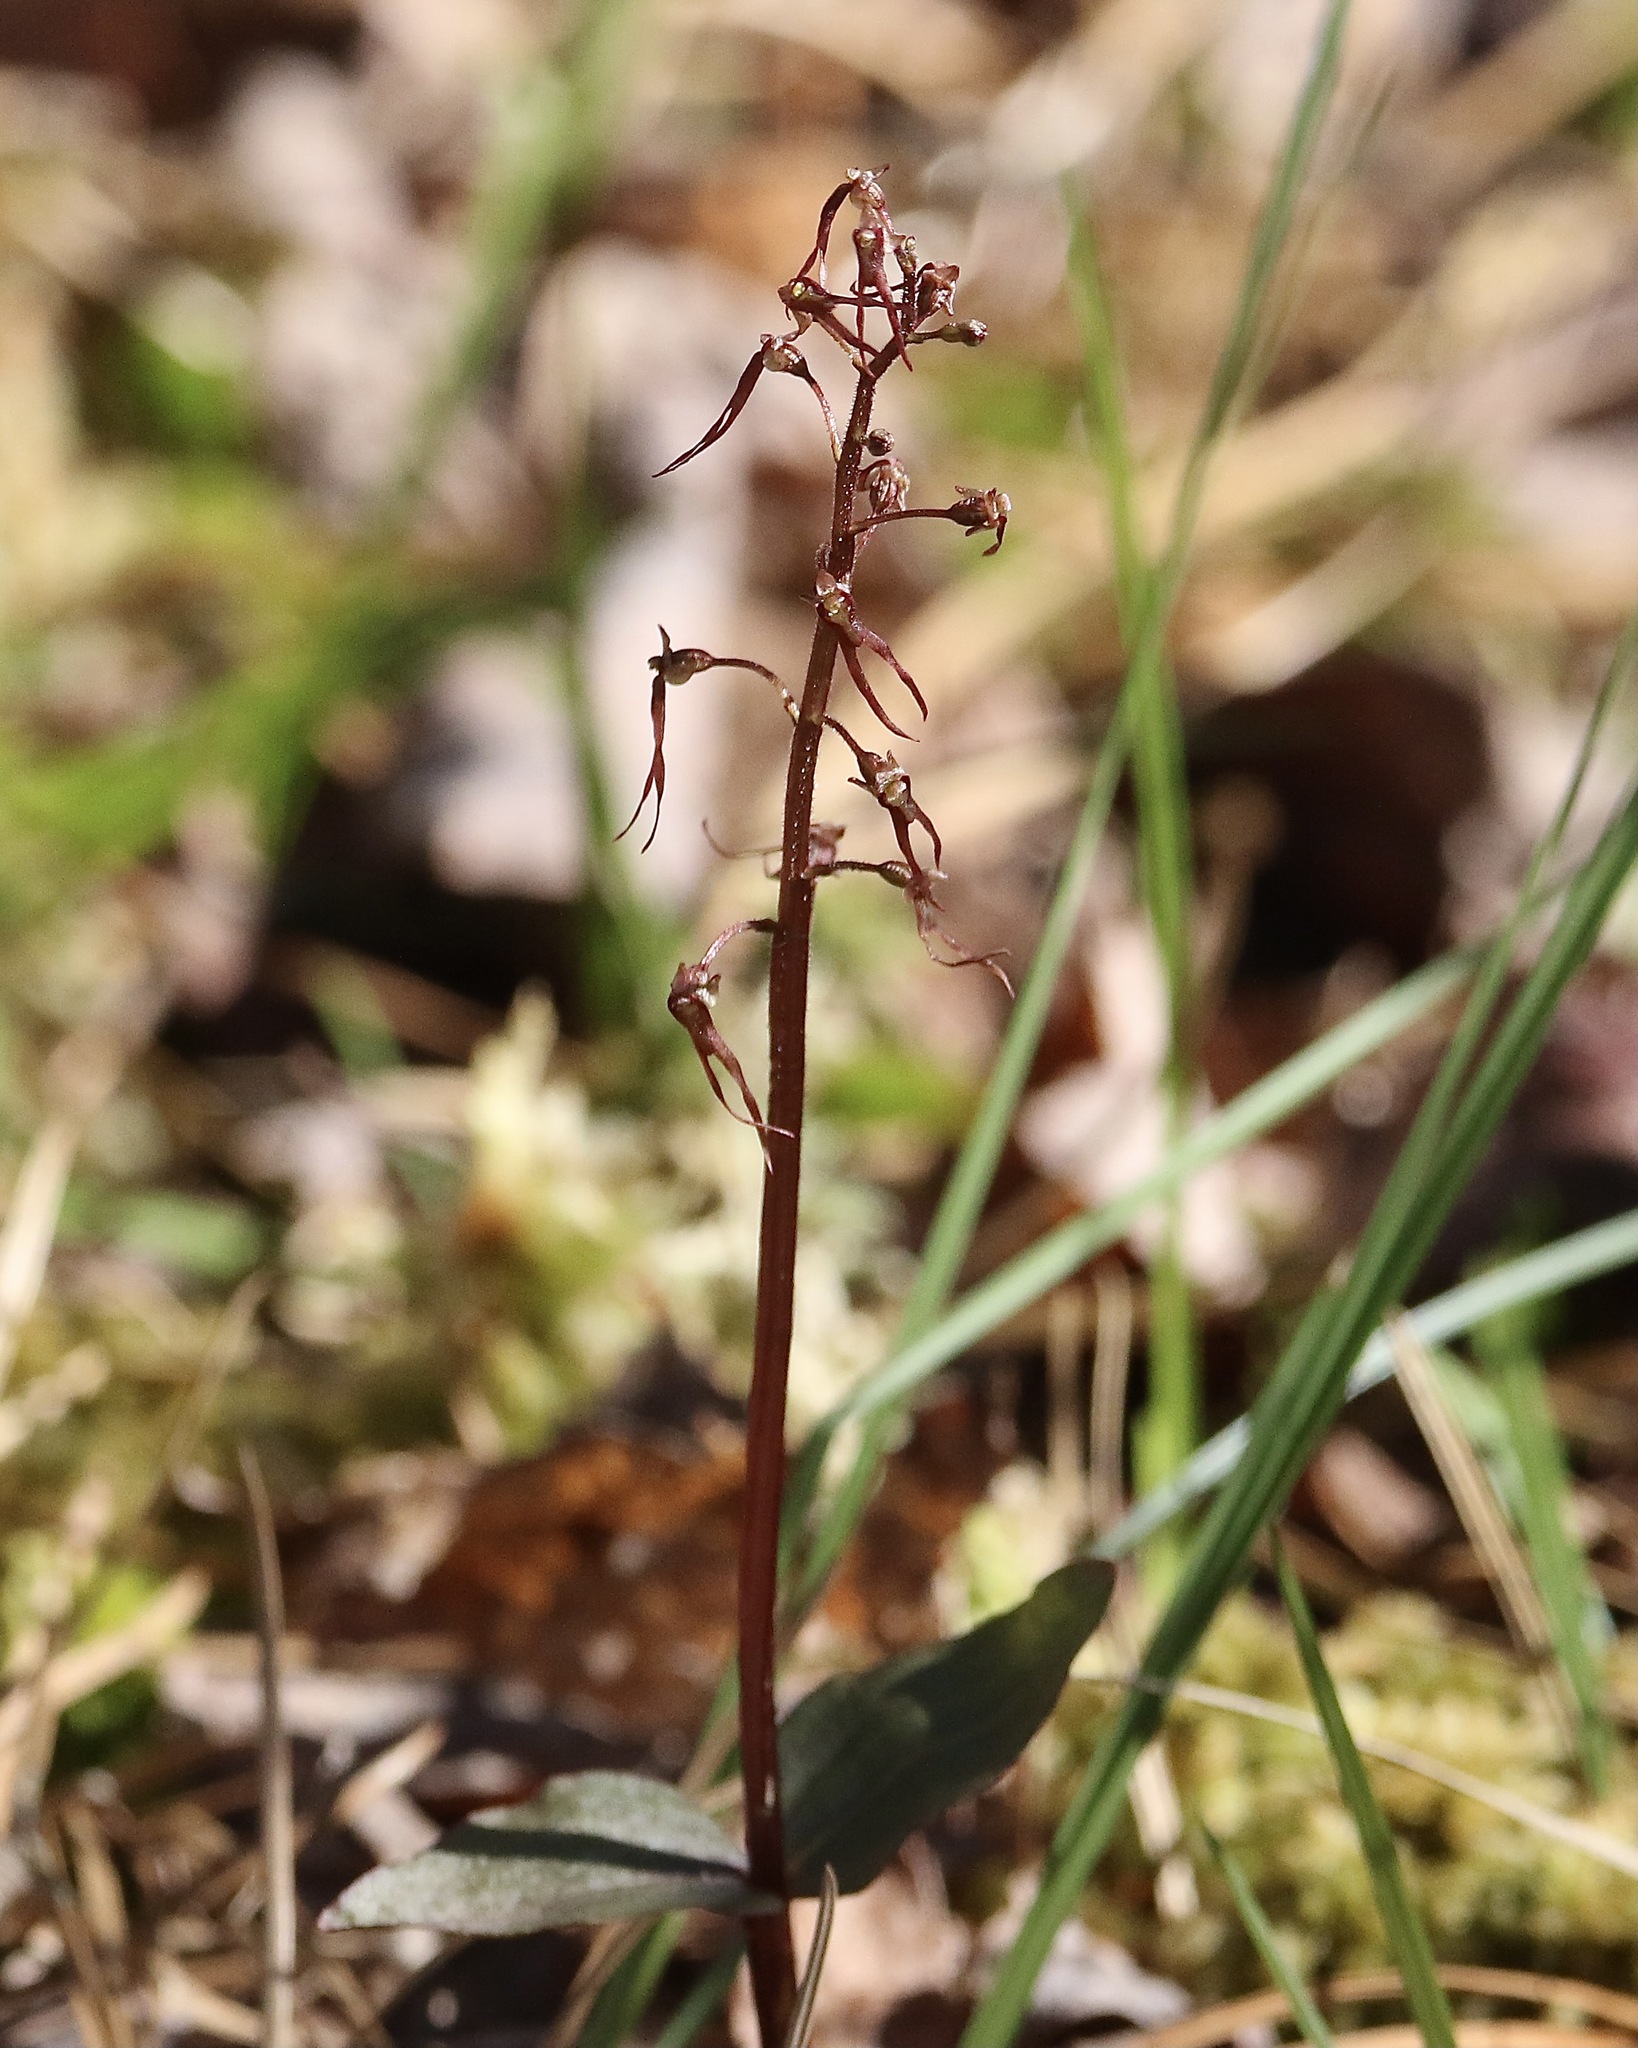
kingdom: Plantae
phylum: Tracheophyta
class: Liliopsida
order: Asparagales
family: Orchidaceae
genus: Neottia
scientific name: Neottia bifolia
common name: Southern twayblade
